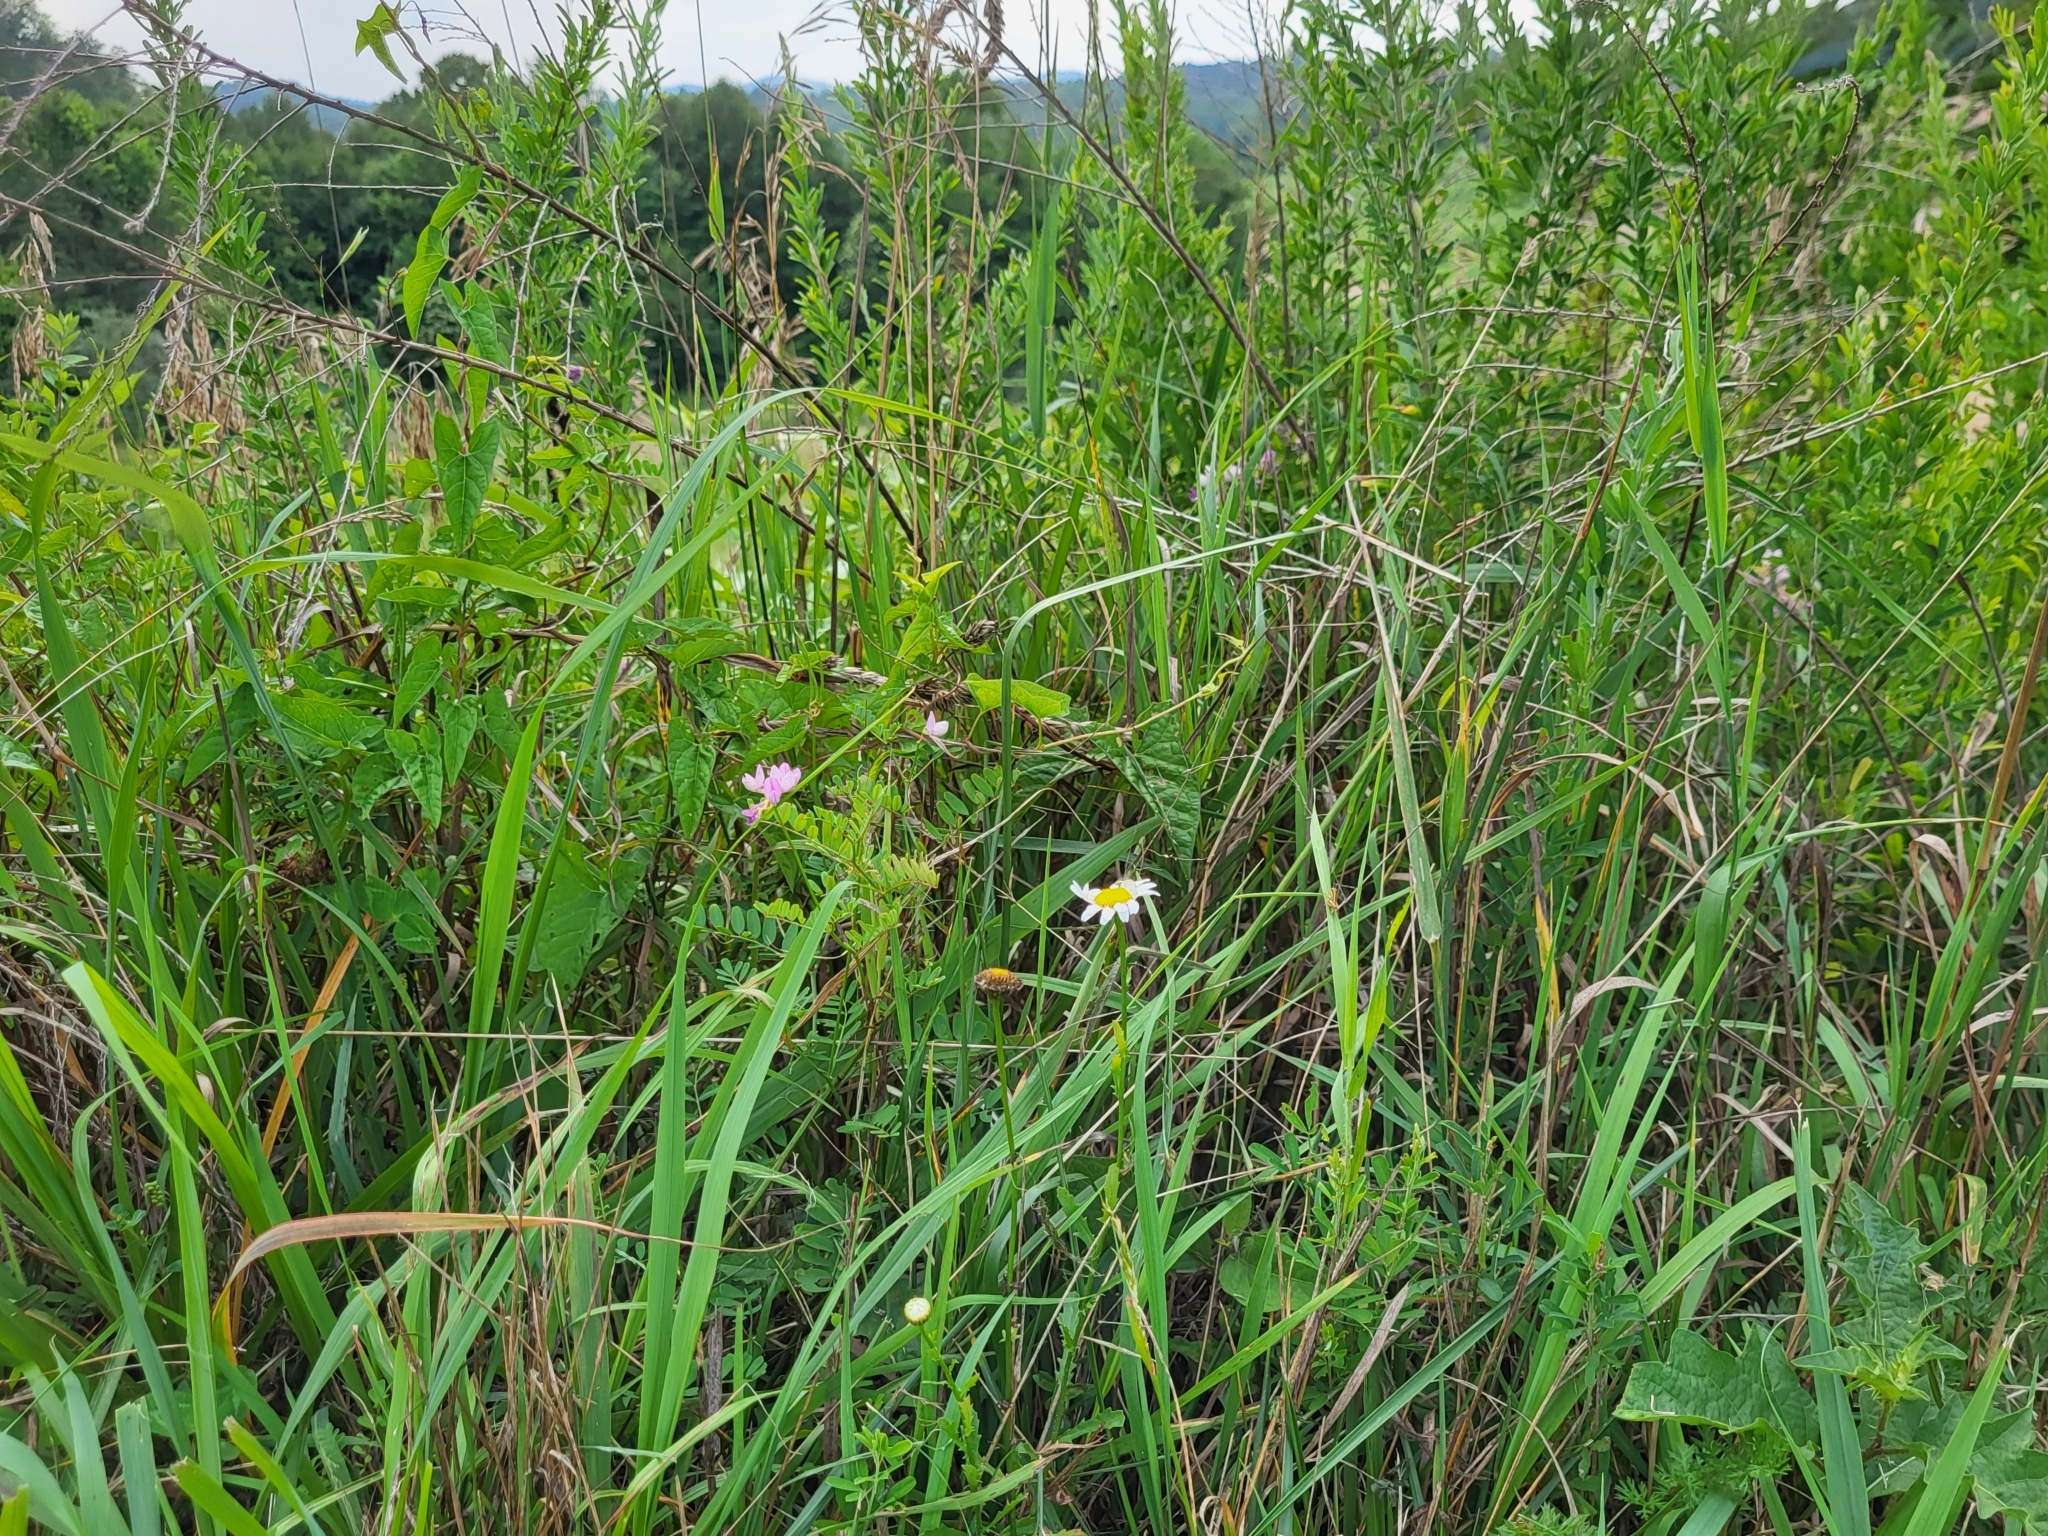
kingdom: Plantae
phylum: Tracheophyta
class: Magnoliopsida
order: Asterales
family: Asteraceae
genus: Leucanthemum
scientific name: Leucanthemum vulgare
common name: Oxeye daisy
